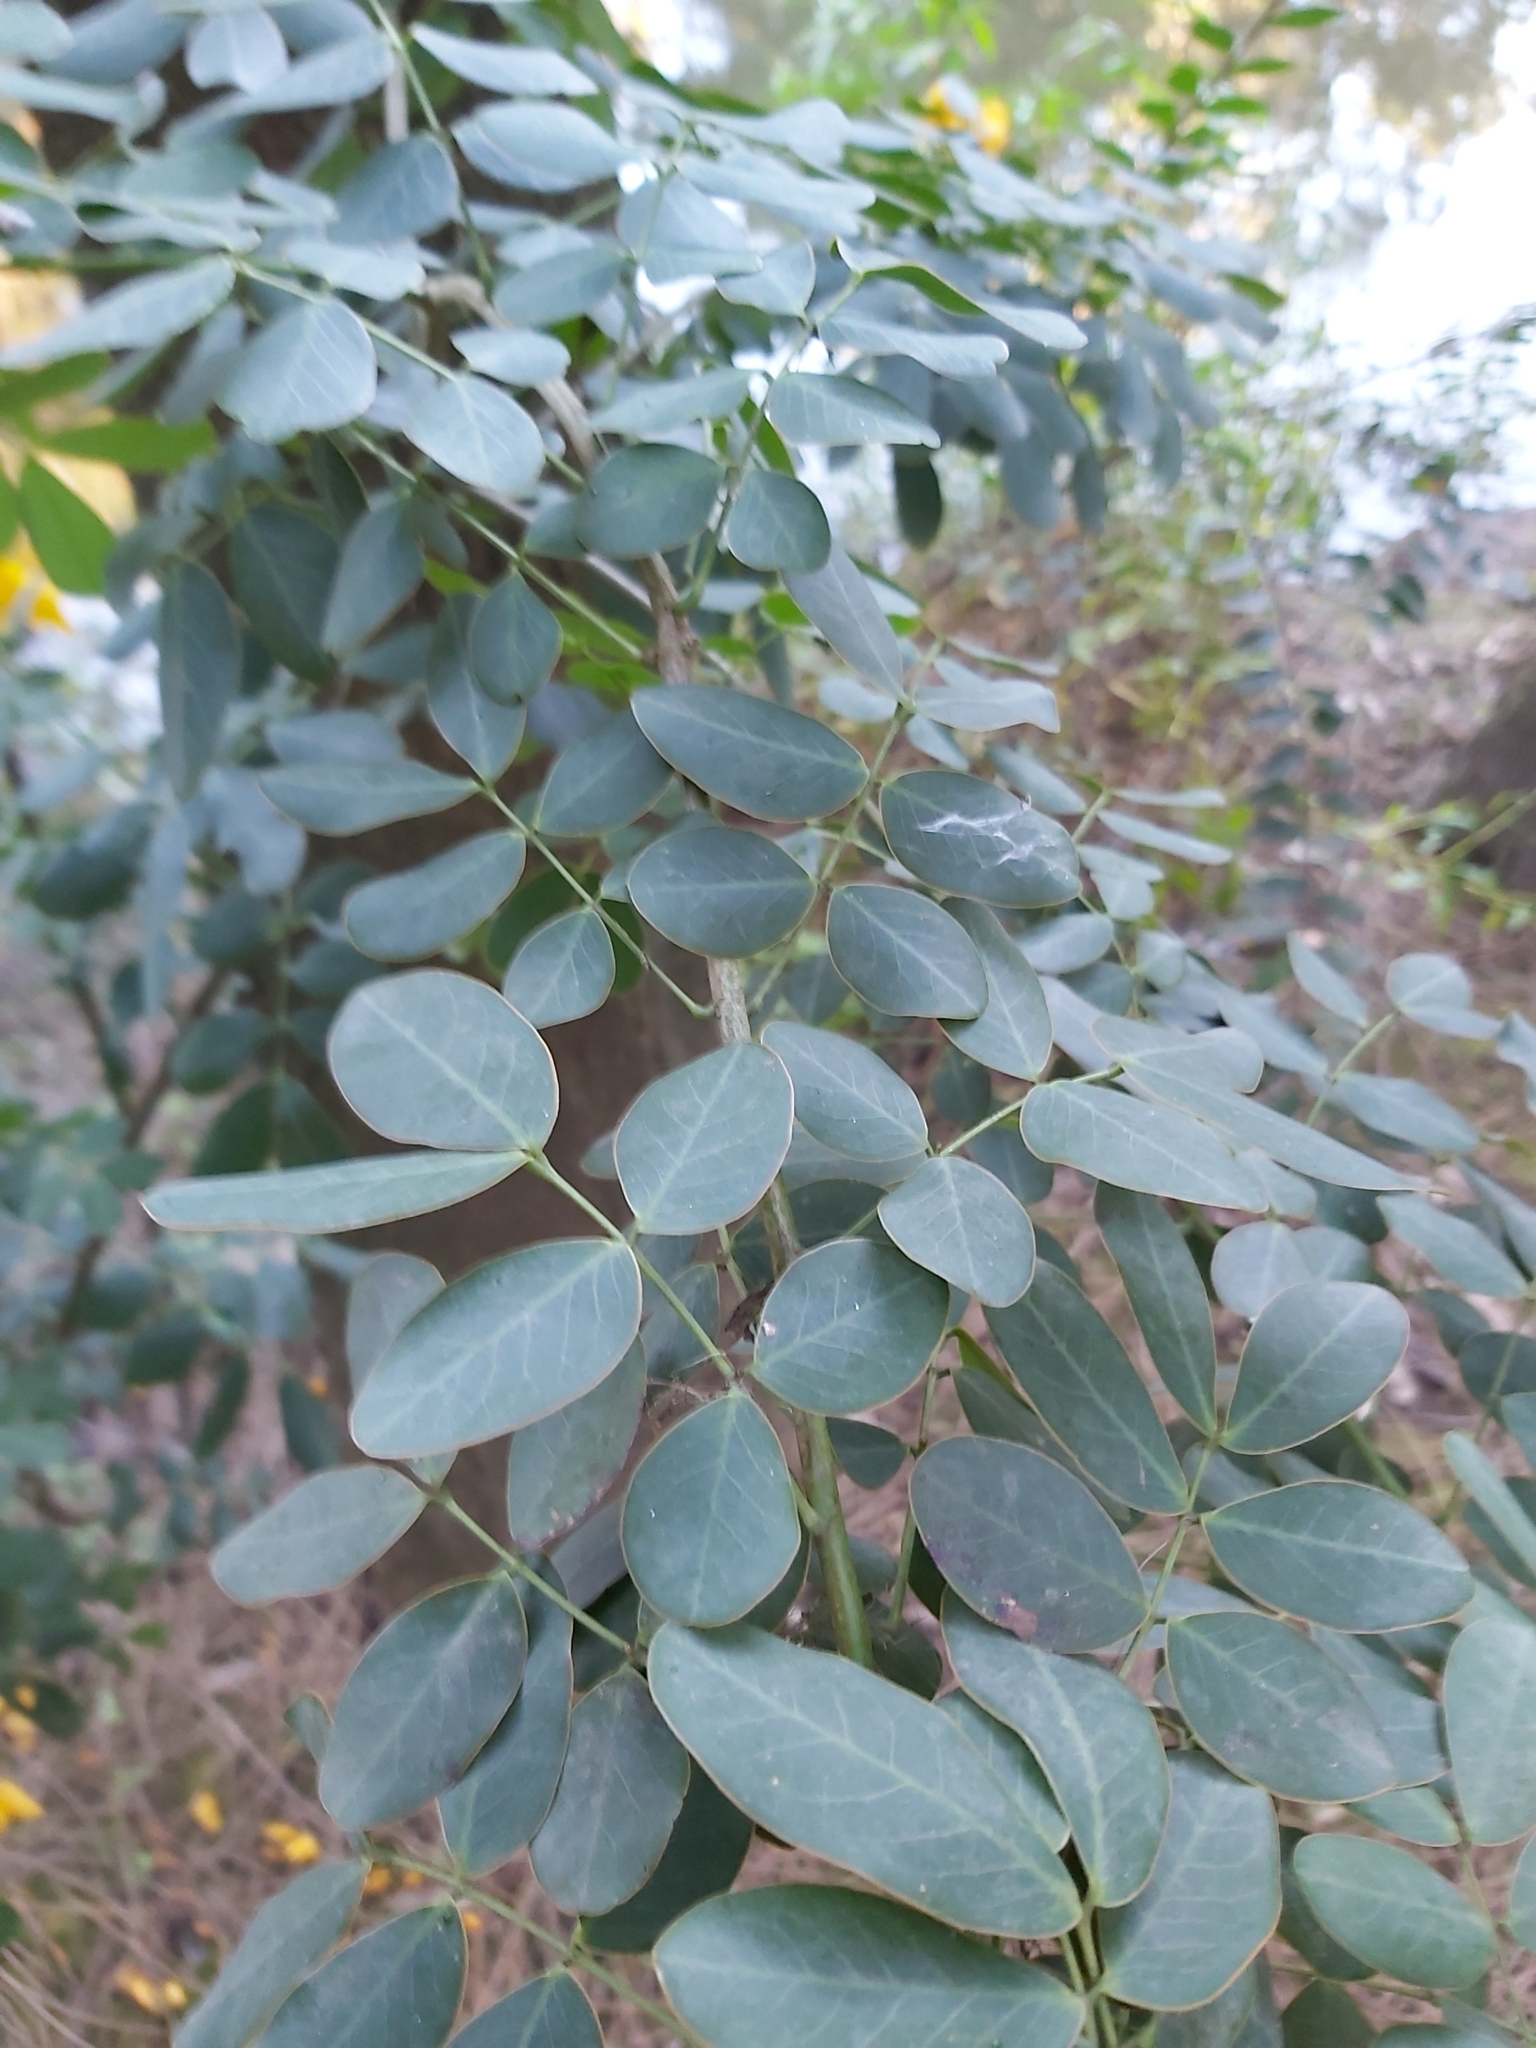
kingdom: Plantae
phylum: Tracheophyta
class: Magnoliopsida
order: Fabales
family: Fabaceae
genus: Senna
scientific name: Senna pendula
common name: Easter cassia
